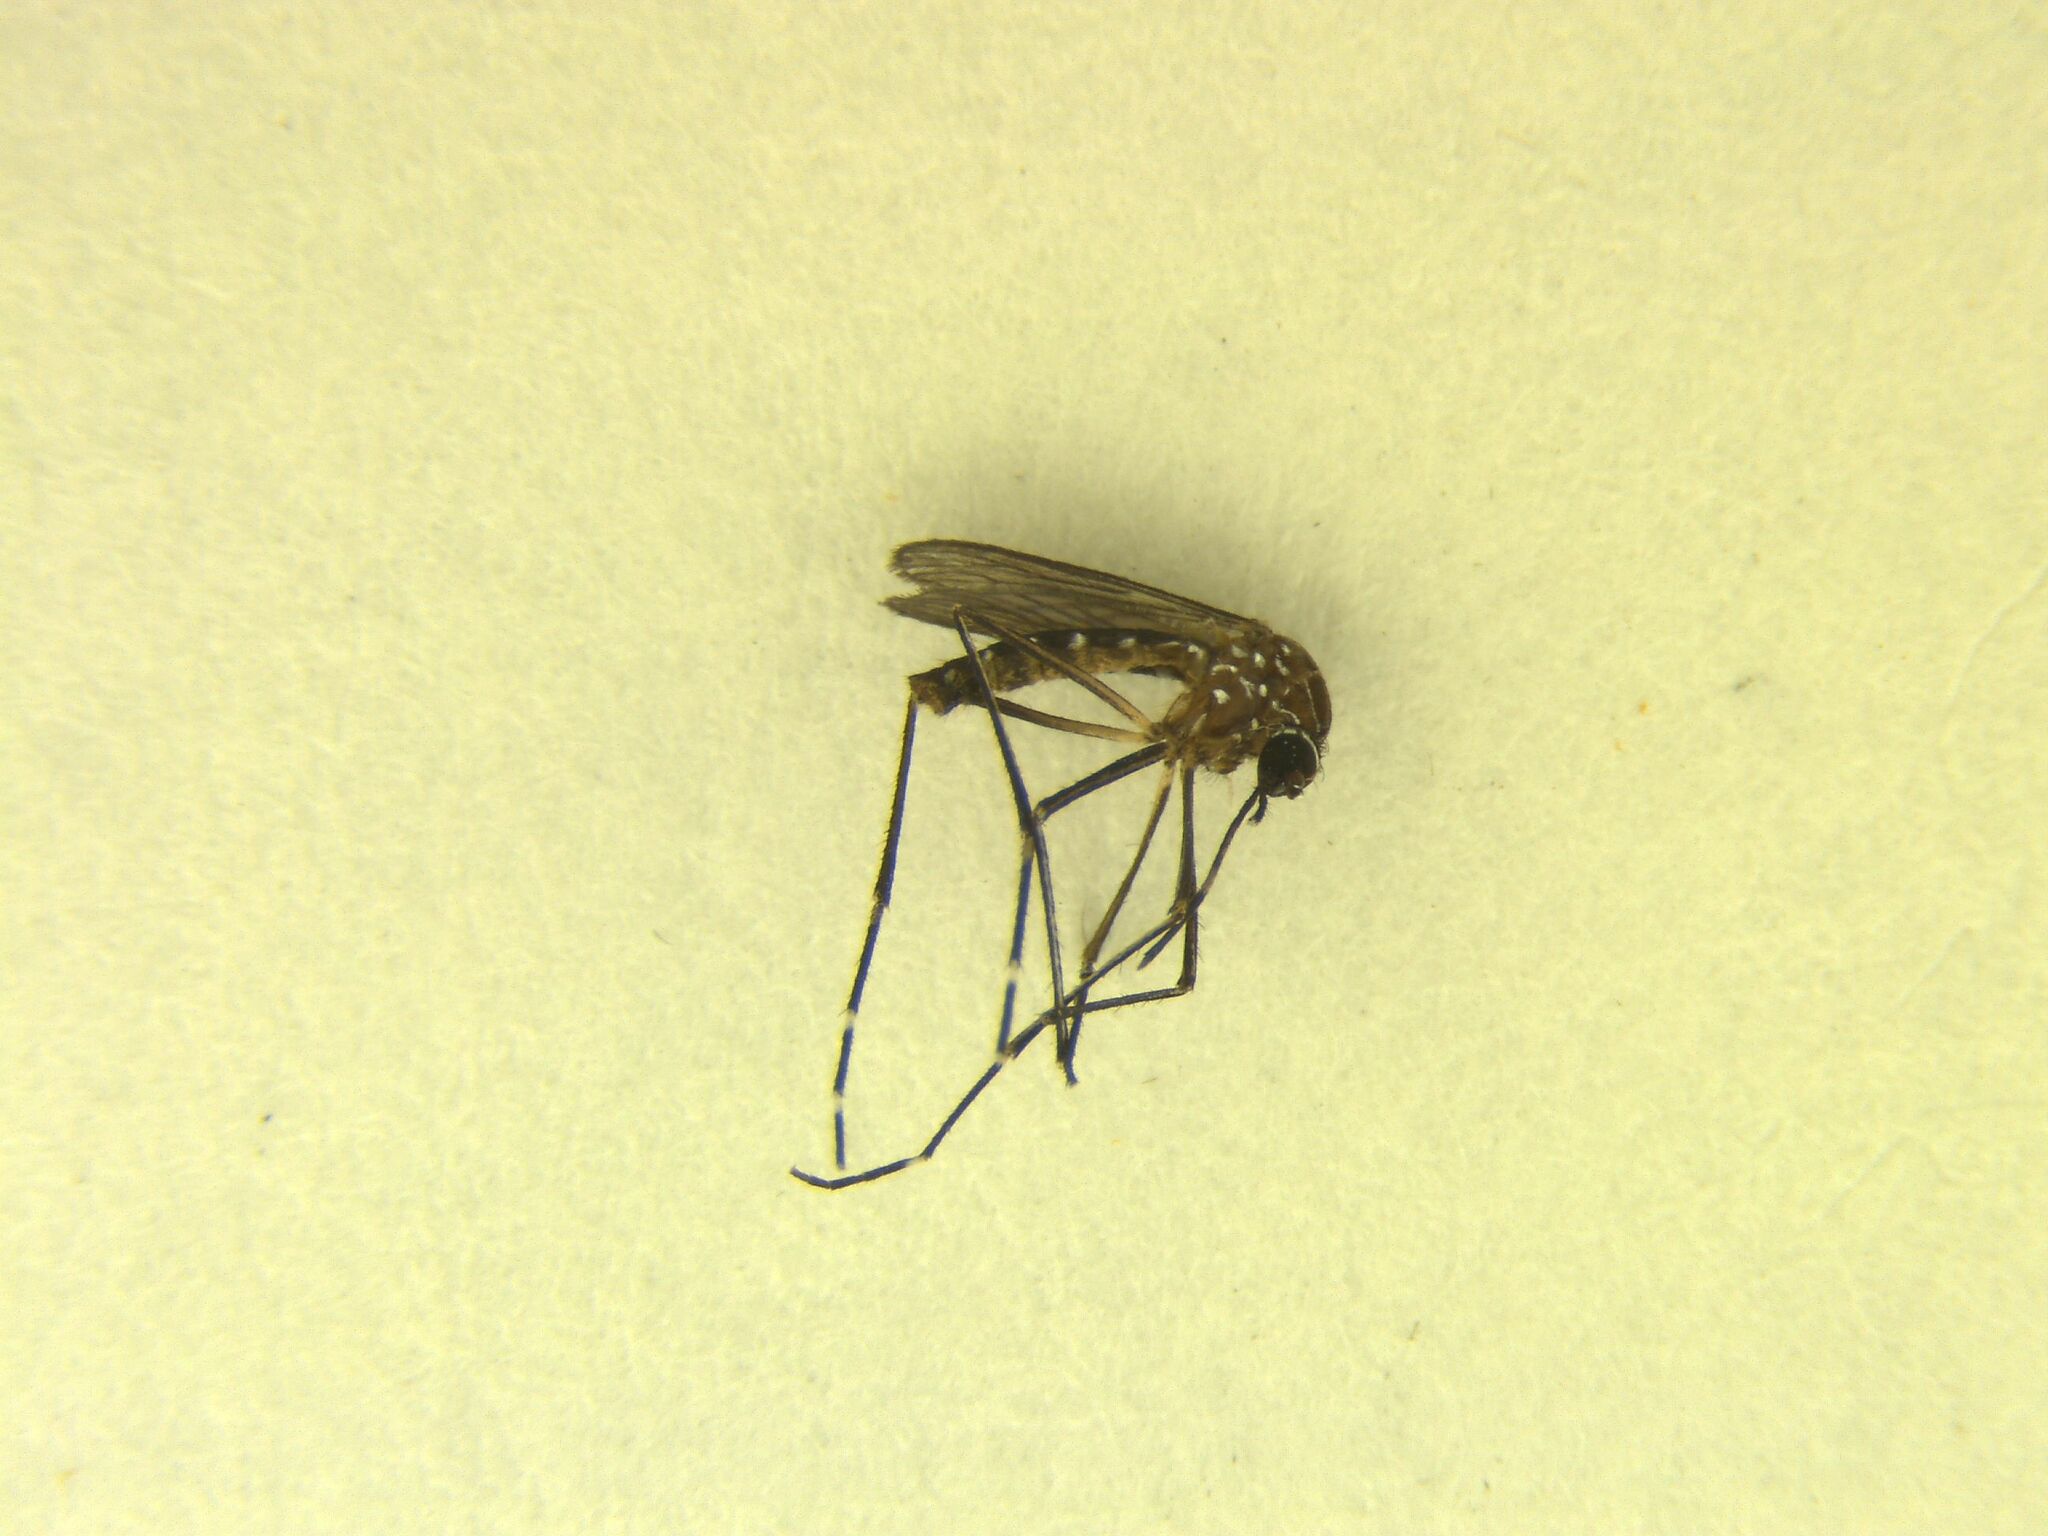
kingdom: Animalia
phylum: Arthropoda
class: Insecta
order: Diptera
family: Culicidae
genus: Aedes
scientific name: Aedes notoscriptus
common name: Australian backyard mosquito
